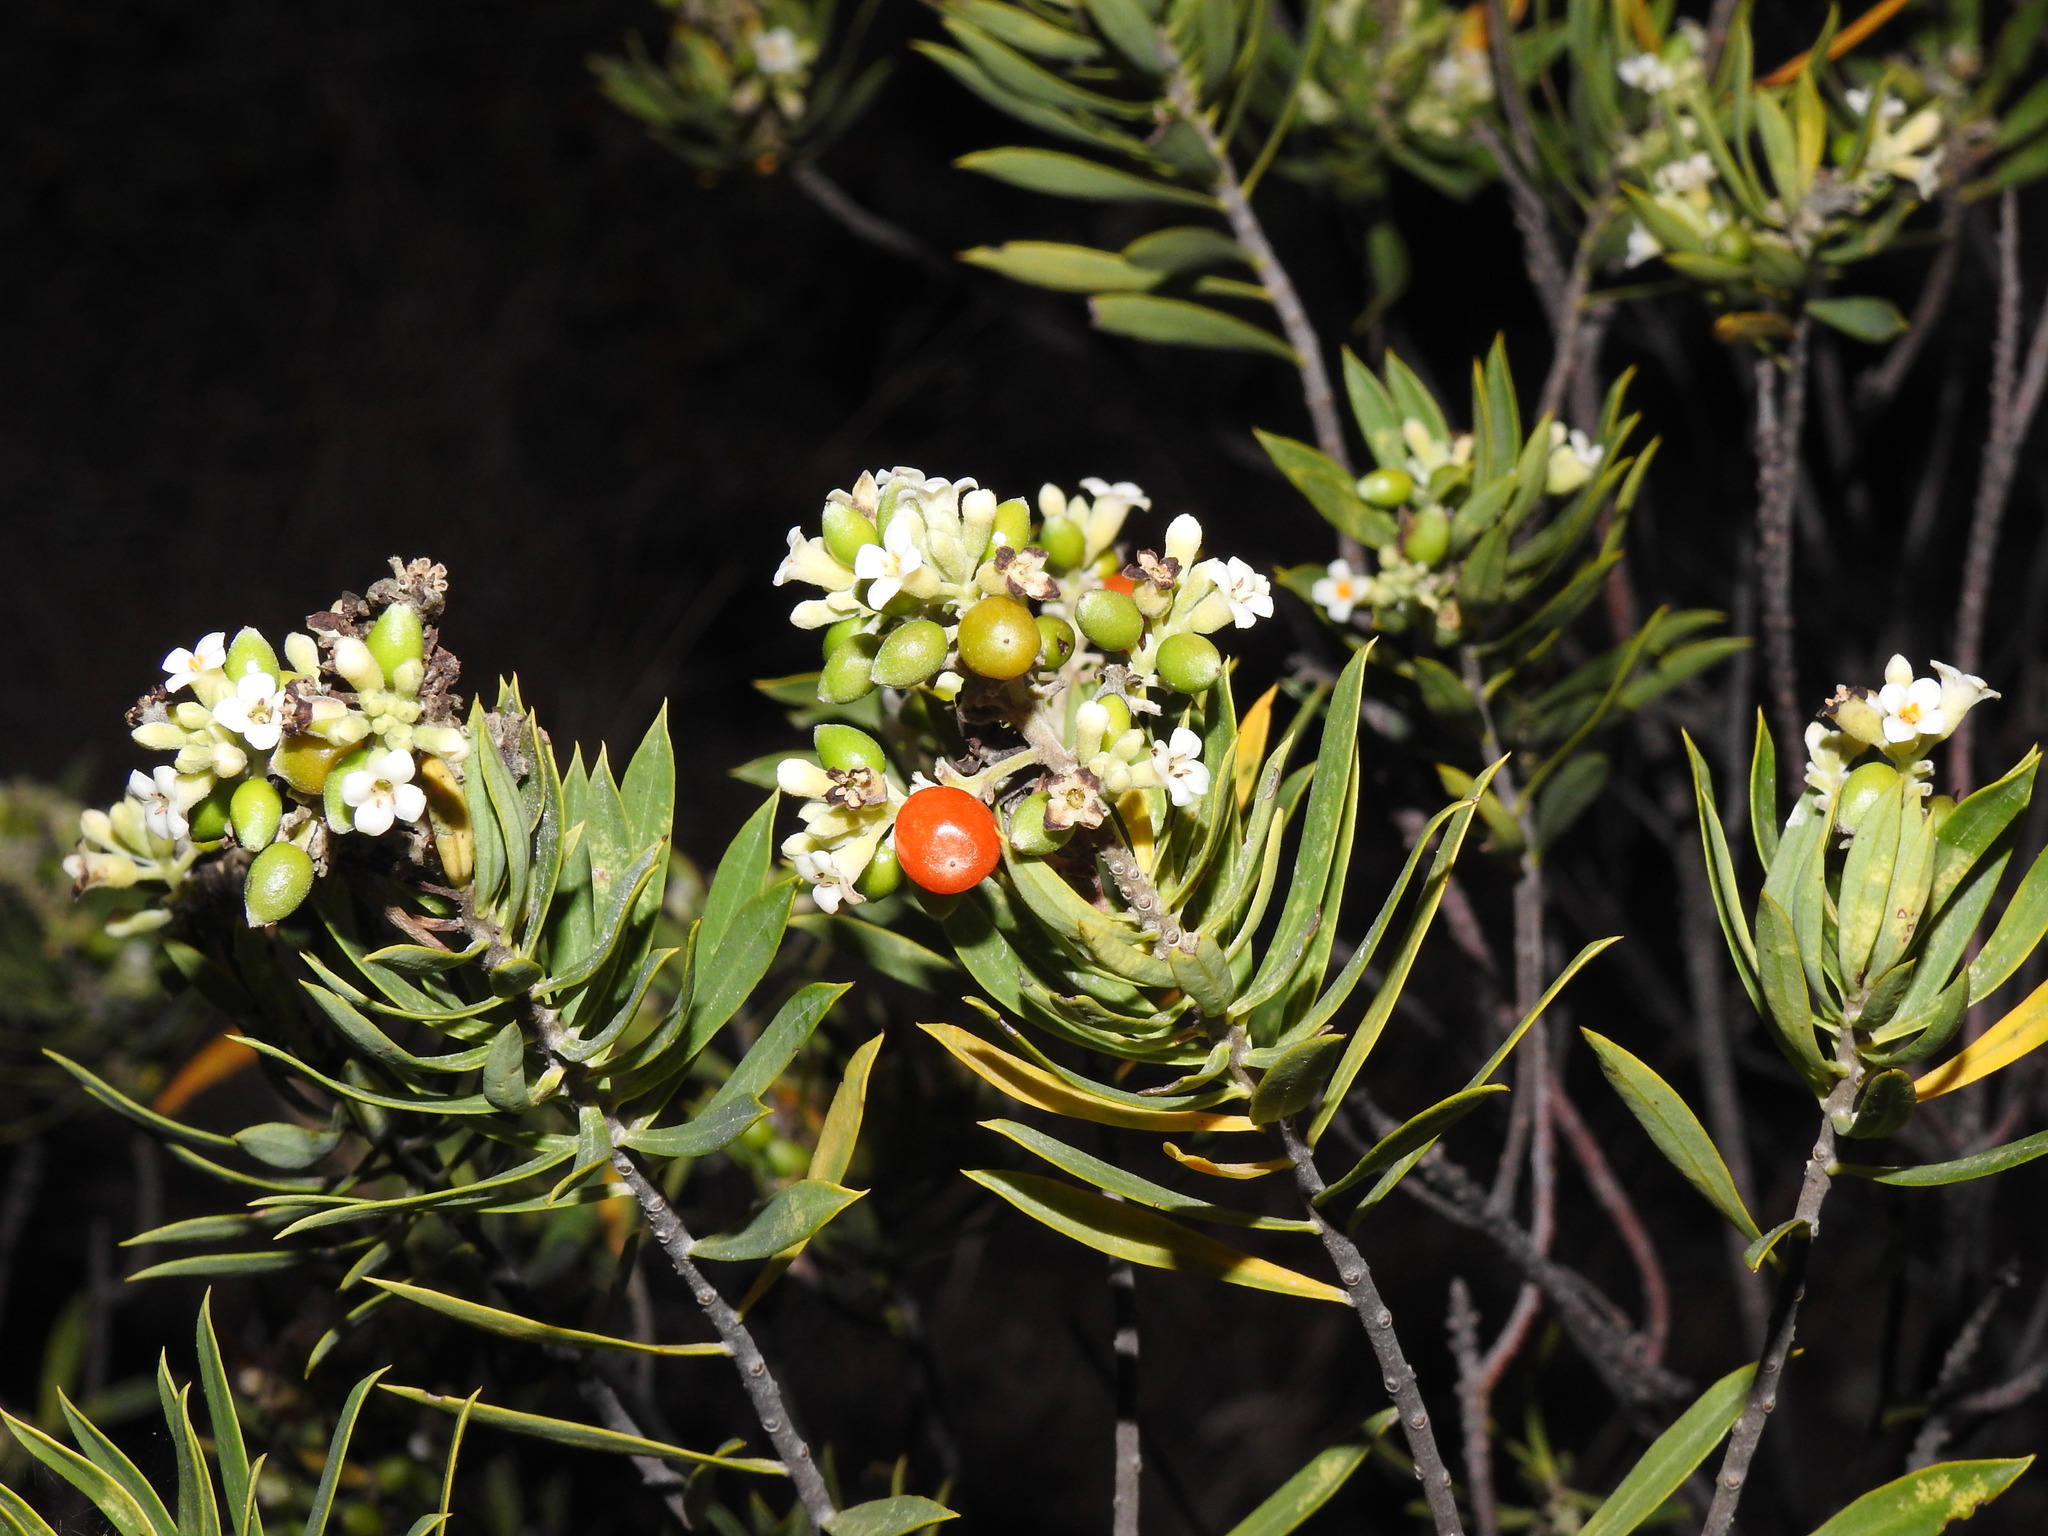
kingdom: Plantae
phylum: Tracheophyta
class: Magnoliopsida
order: Malvales
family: Thymelaeaceae
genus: Daphne
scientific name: Daphne gnidium
